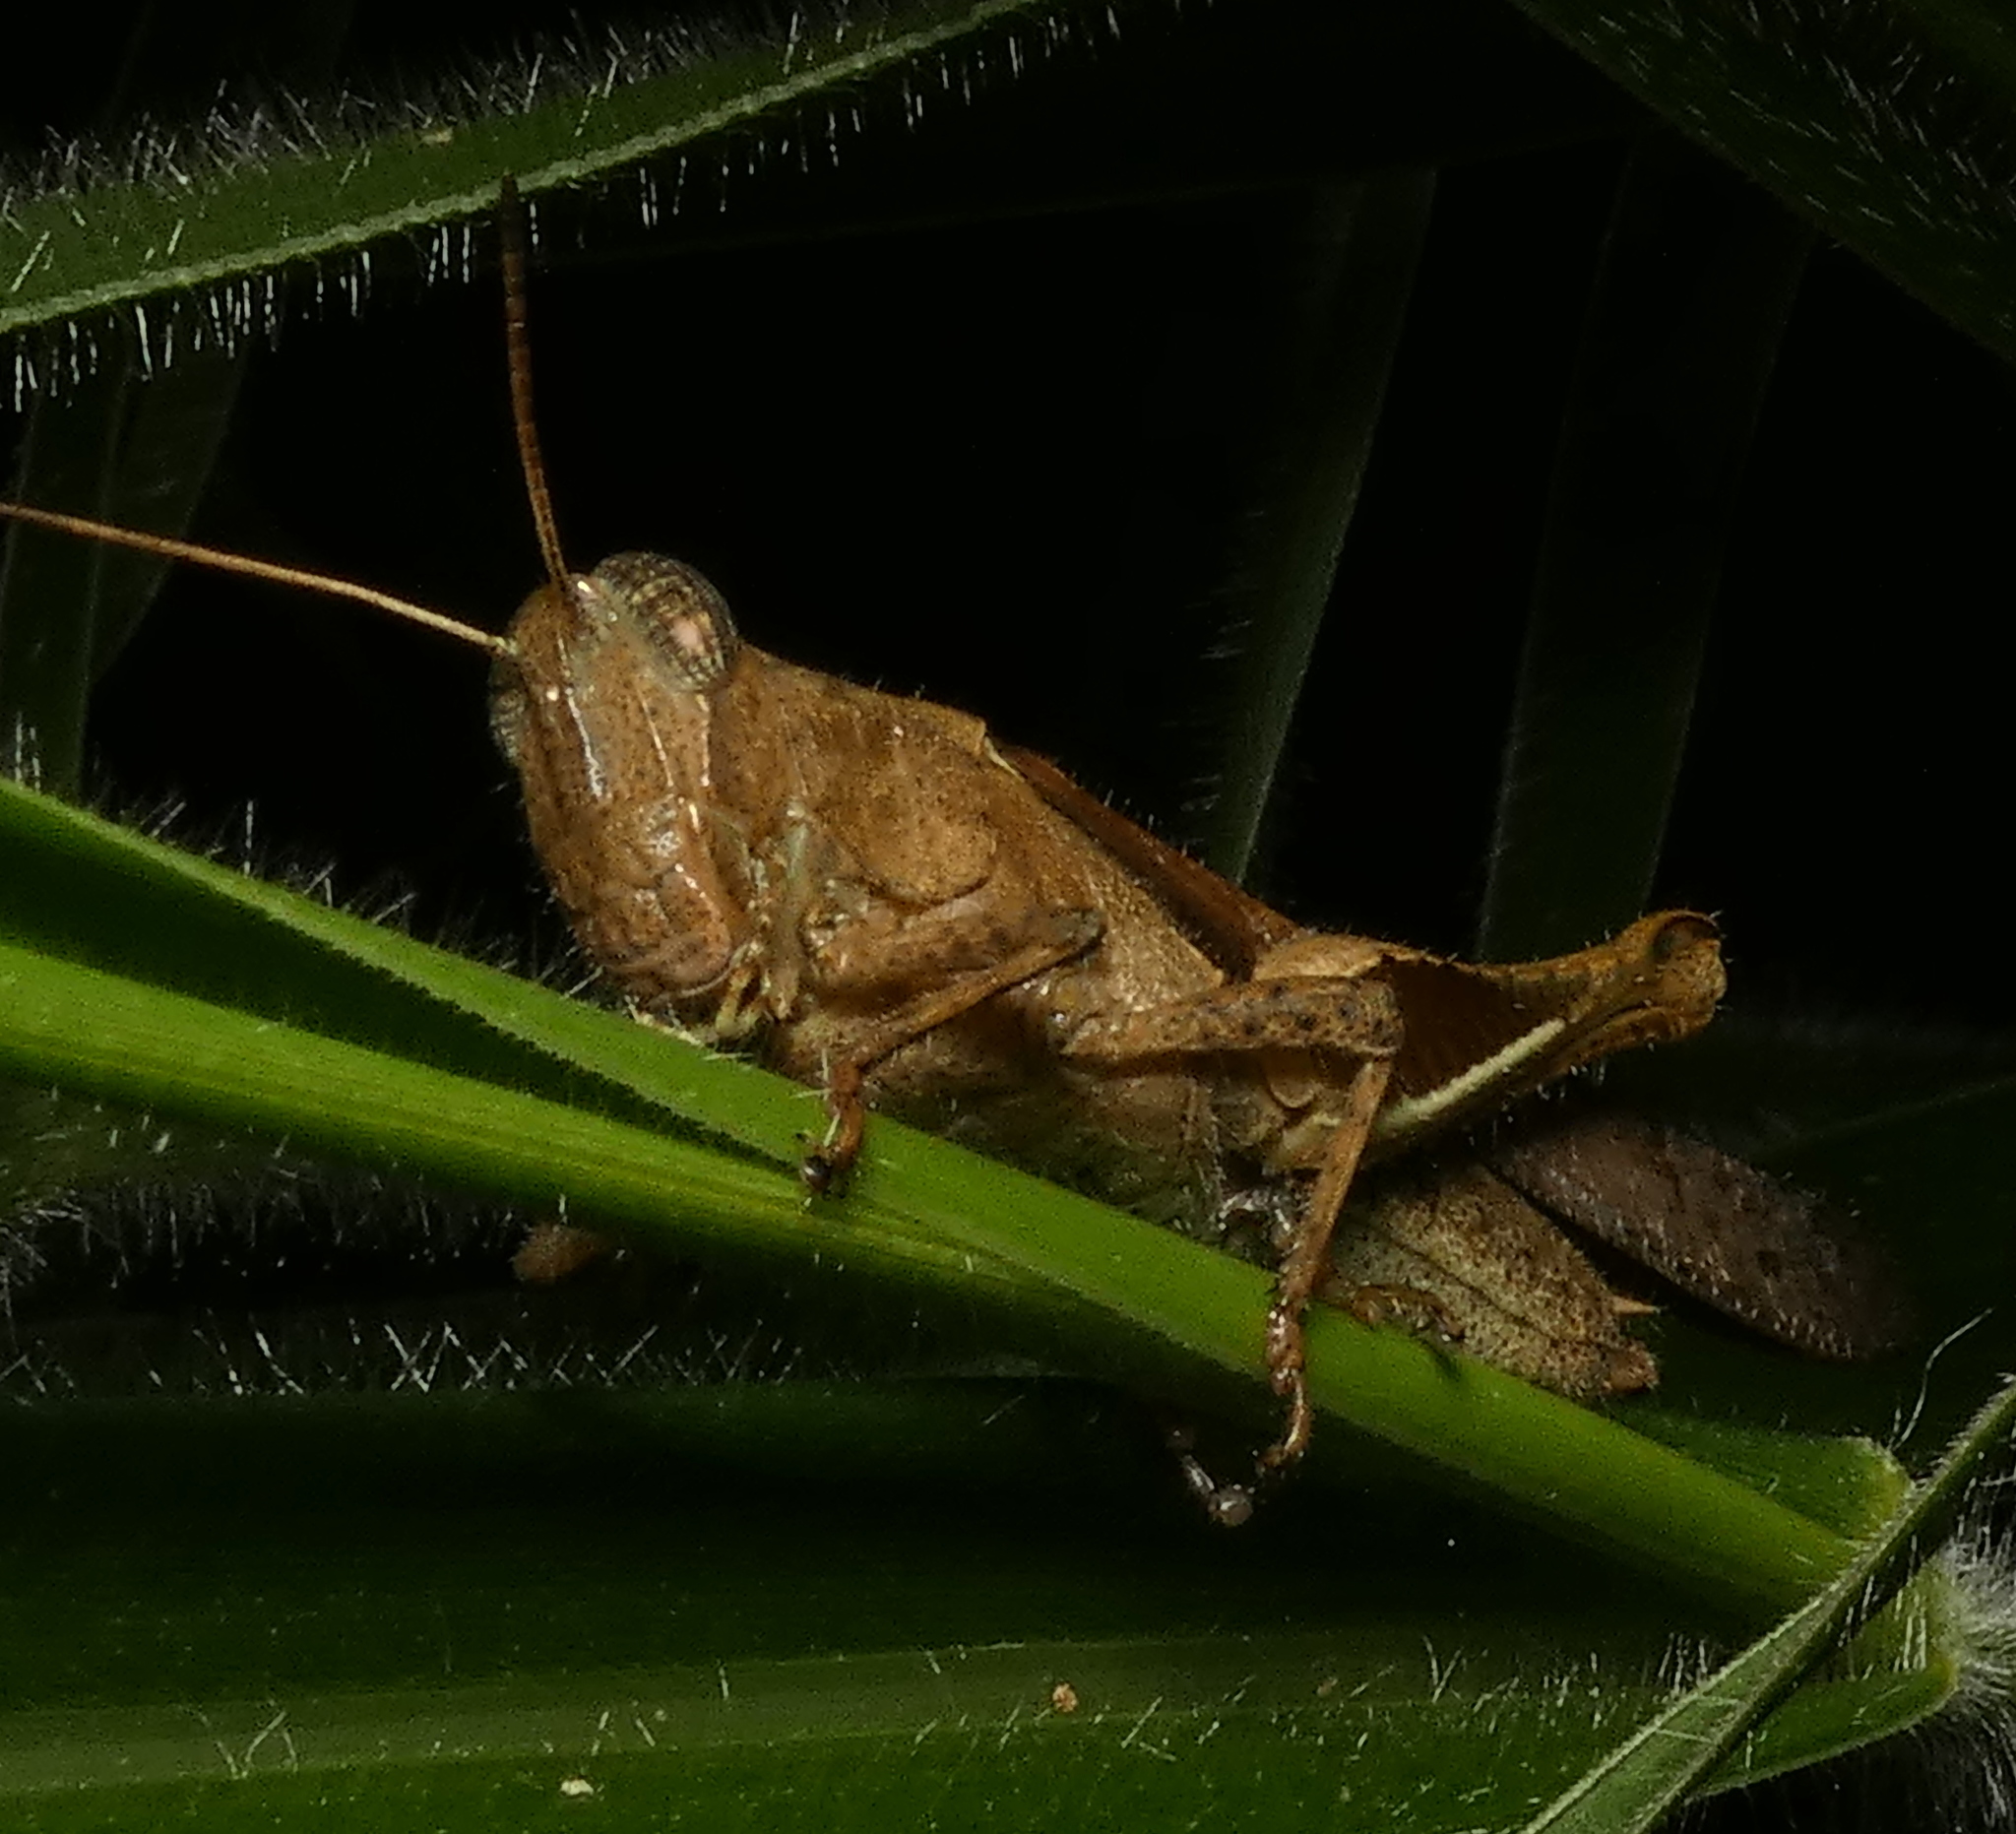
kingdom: Animalia
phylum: Arthropoda
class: Insecta
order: Orthoptera
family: Acrididae
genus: Abracris
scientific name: Abracris flavolineata
